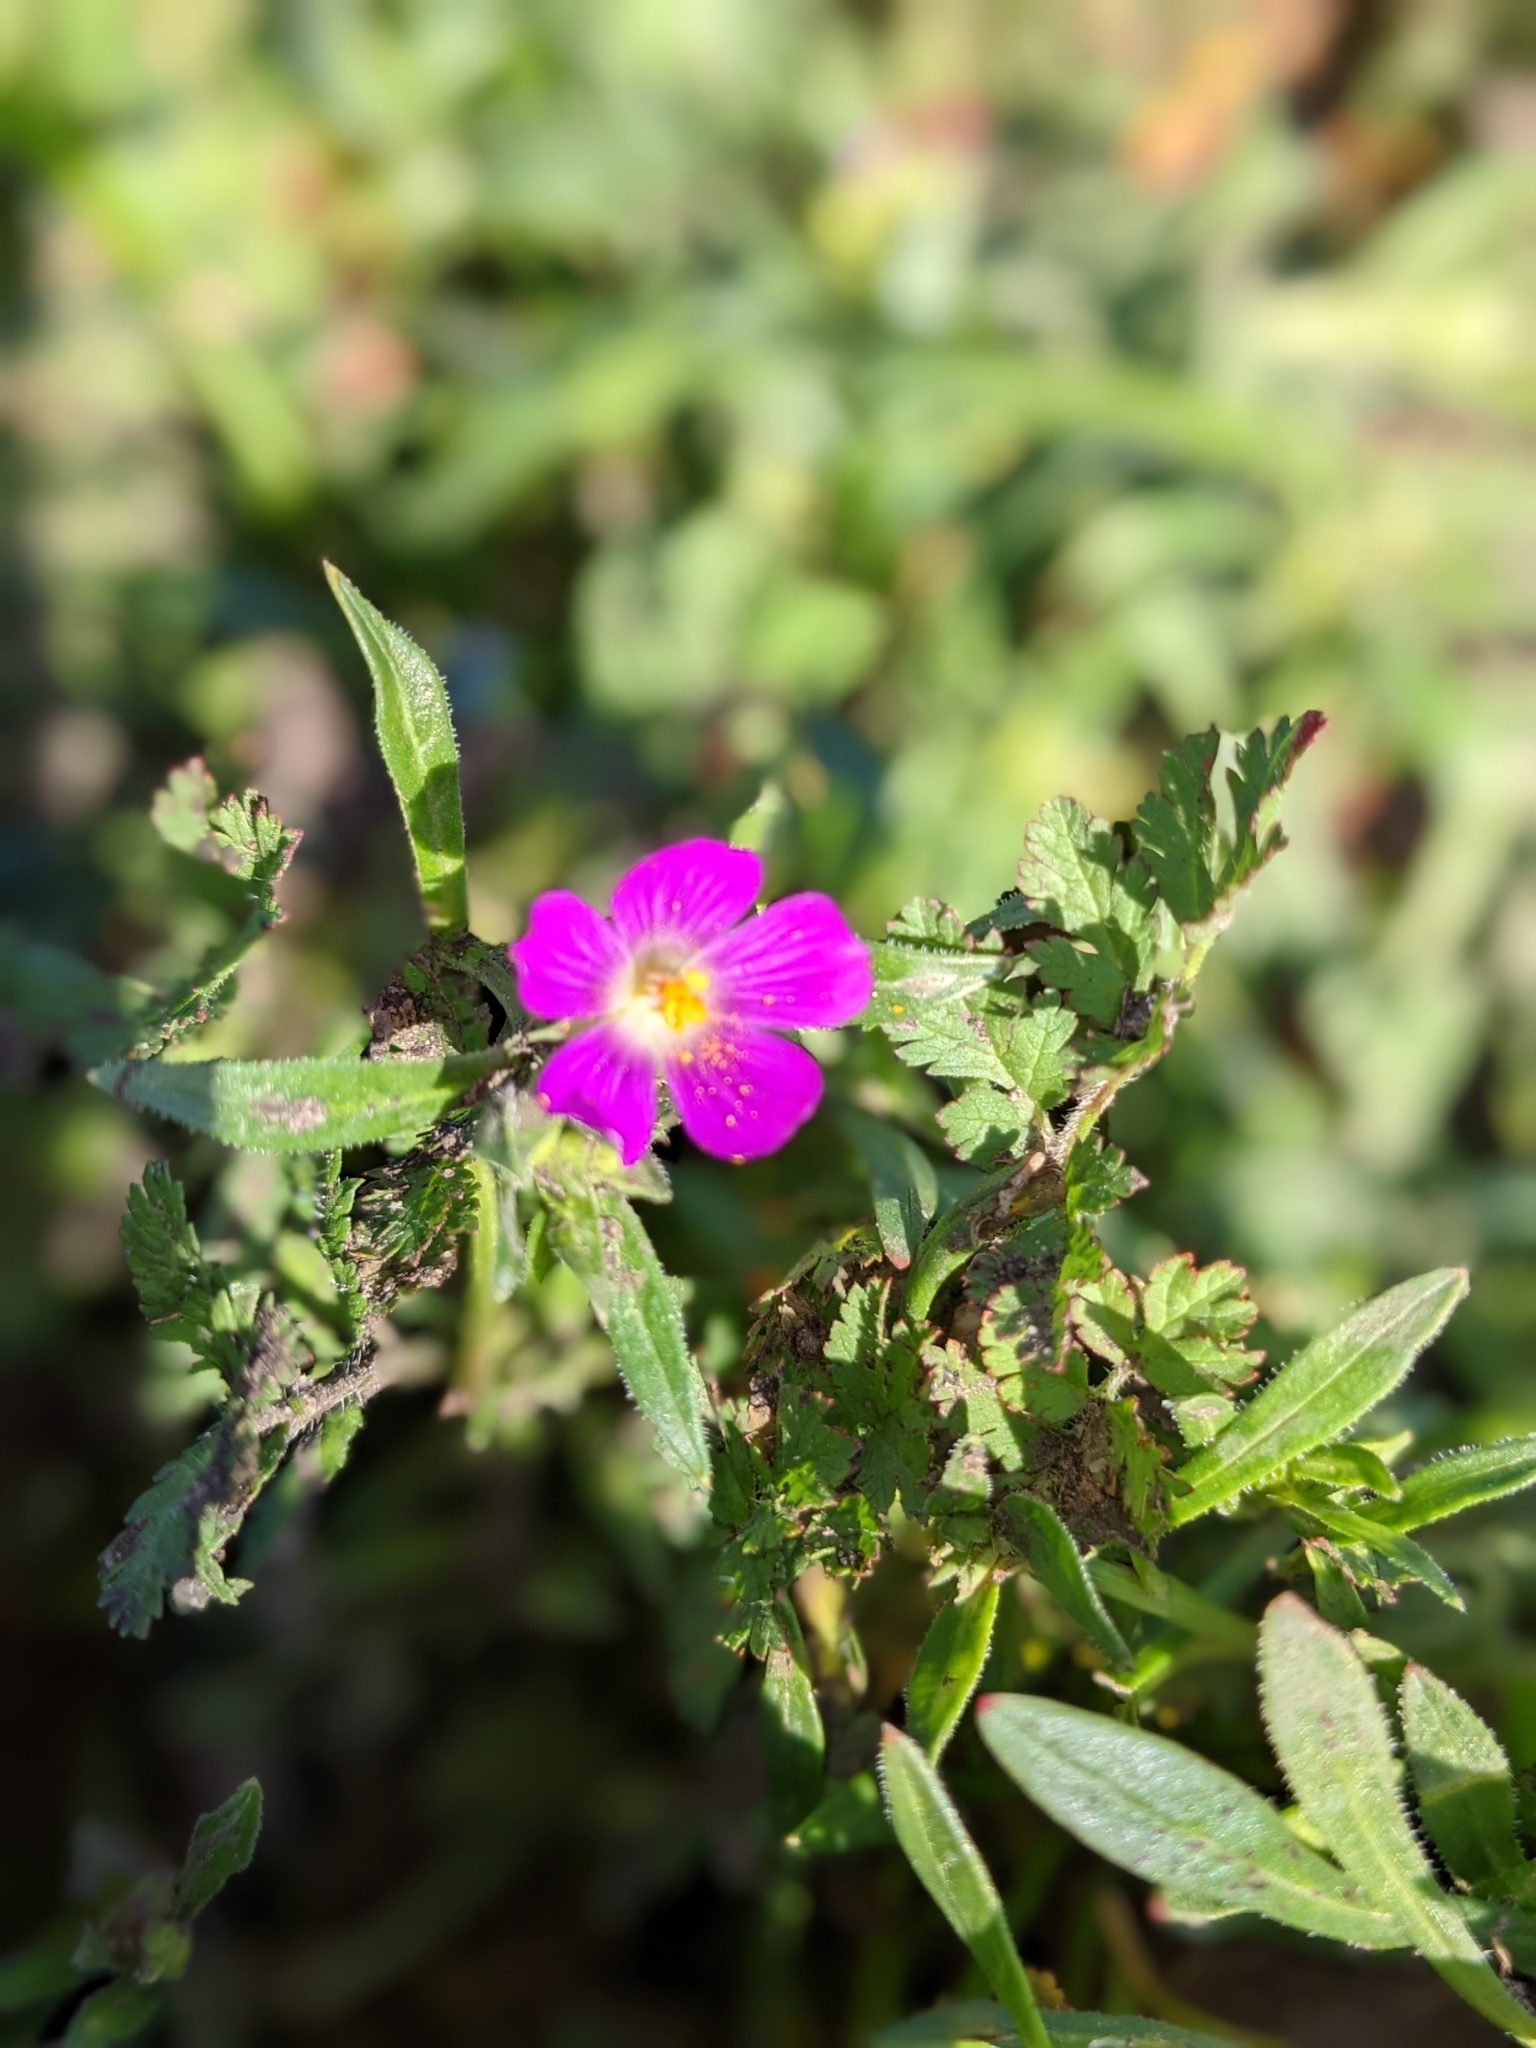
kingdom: Plantae
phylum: Tracheophyta
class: Magnoliopsida
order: Caryophyllales
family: Montiaceae
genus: Calandrinia
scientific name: Calandrinia menziesii
